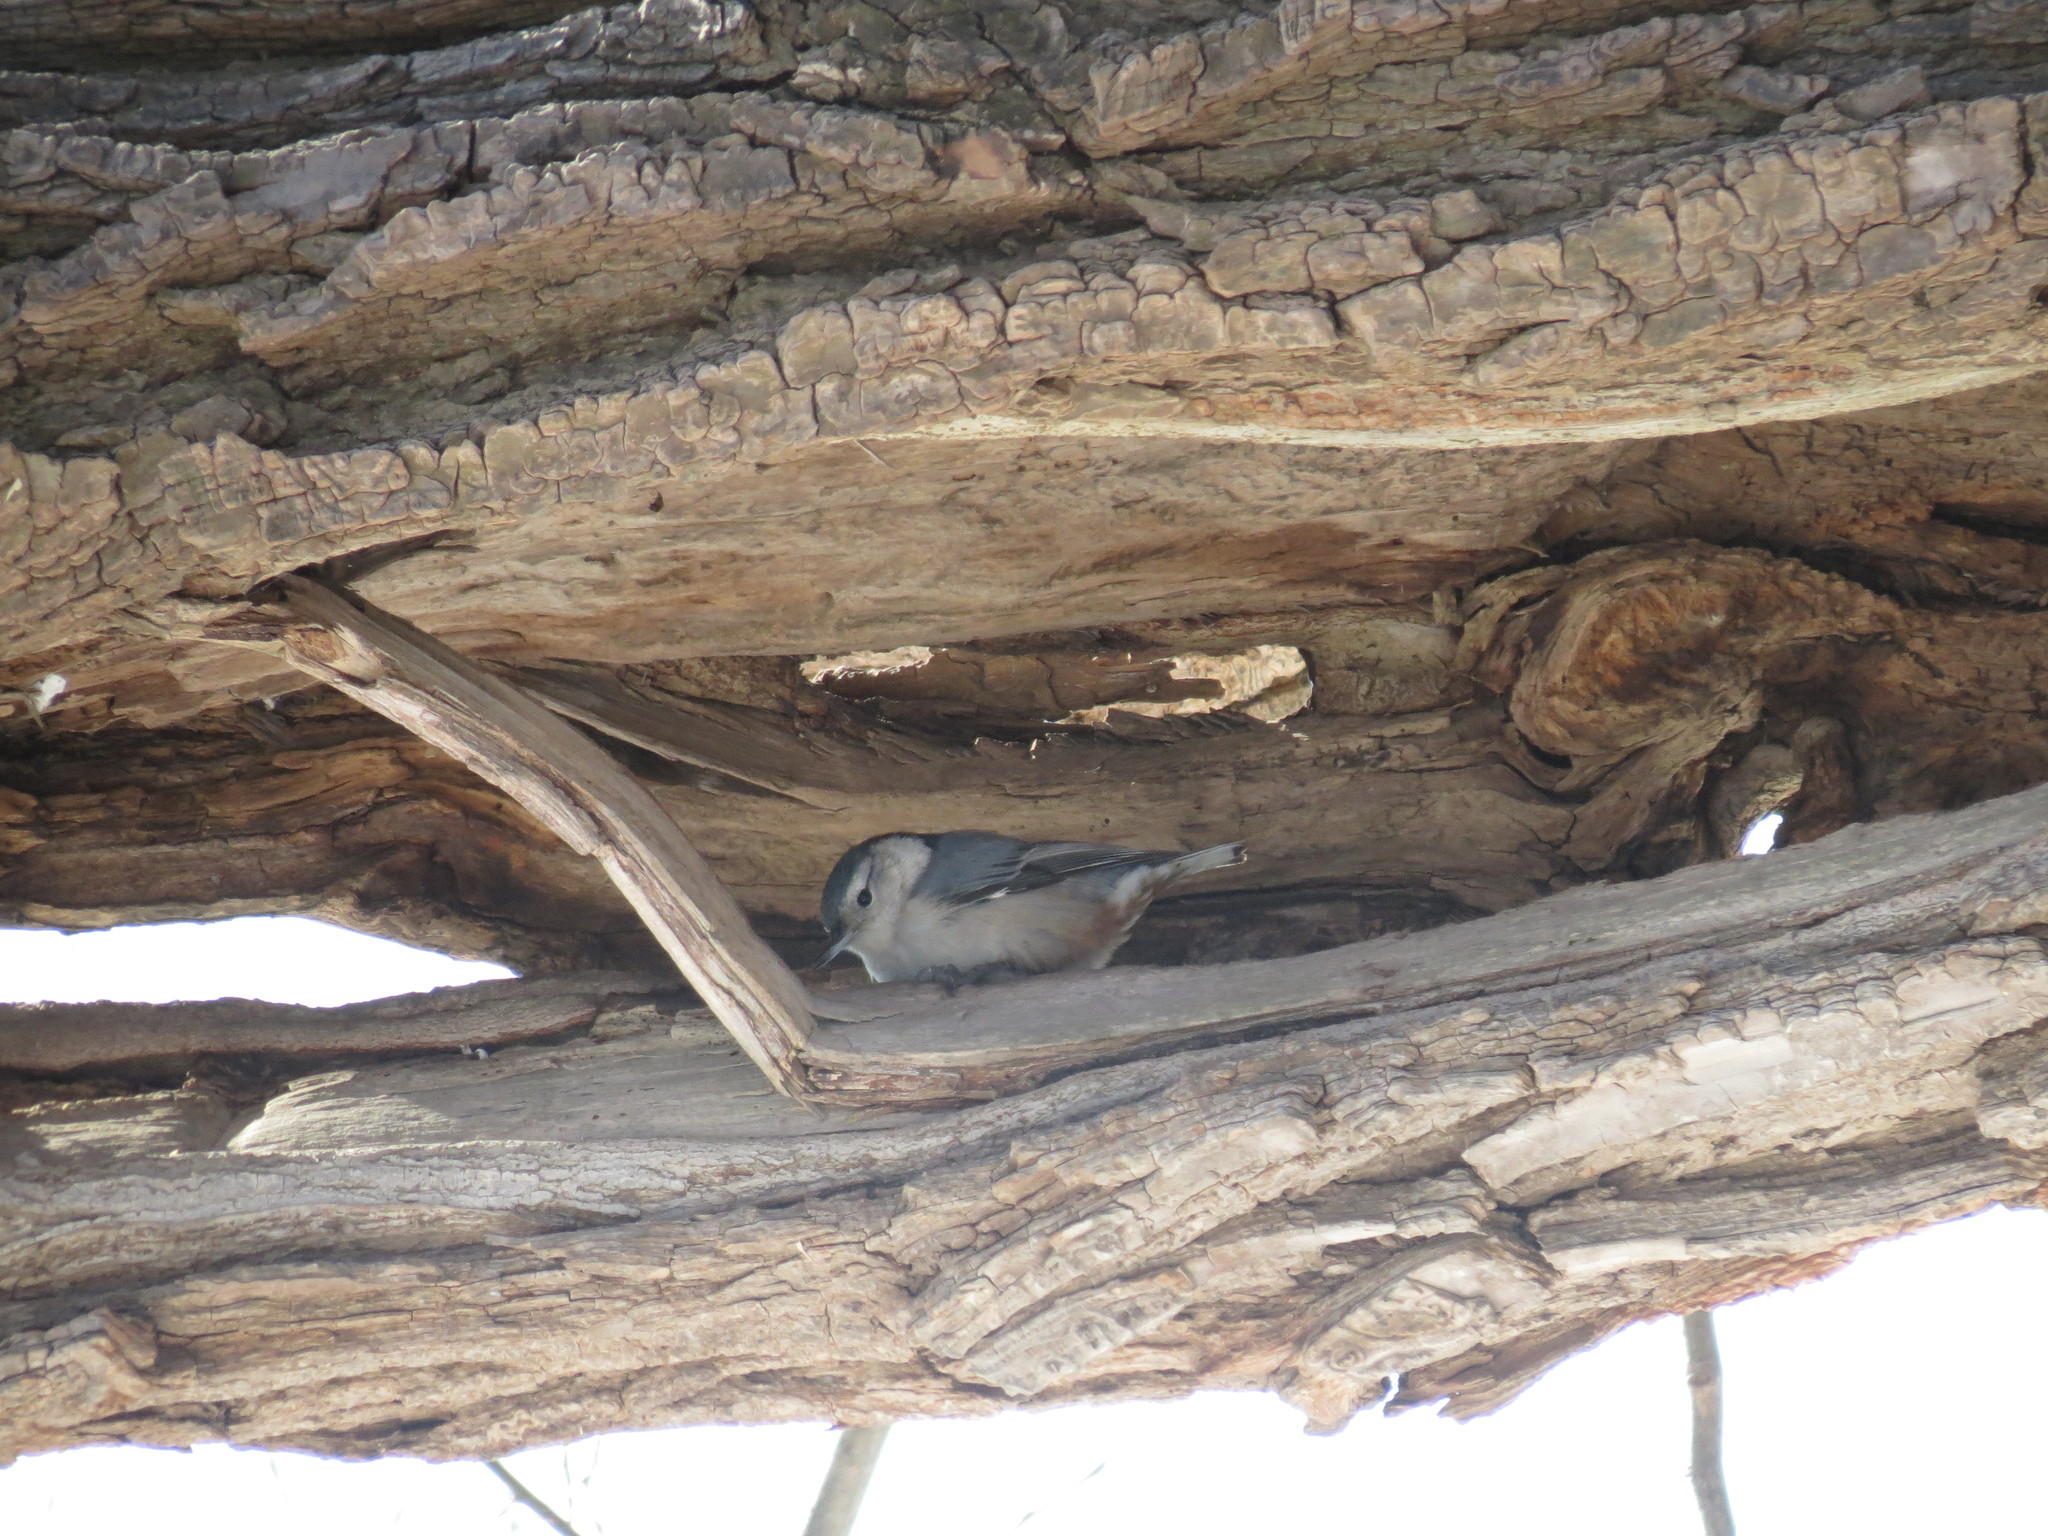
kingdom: Animalia
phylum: Chordata
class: Aves
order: Passeriformes
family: Sittidae
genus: Sitta
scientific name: Sitta carolinensis
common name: White-breasted nuthatch
